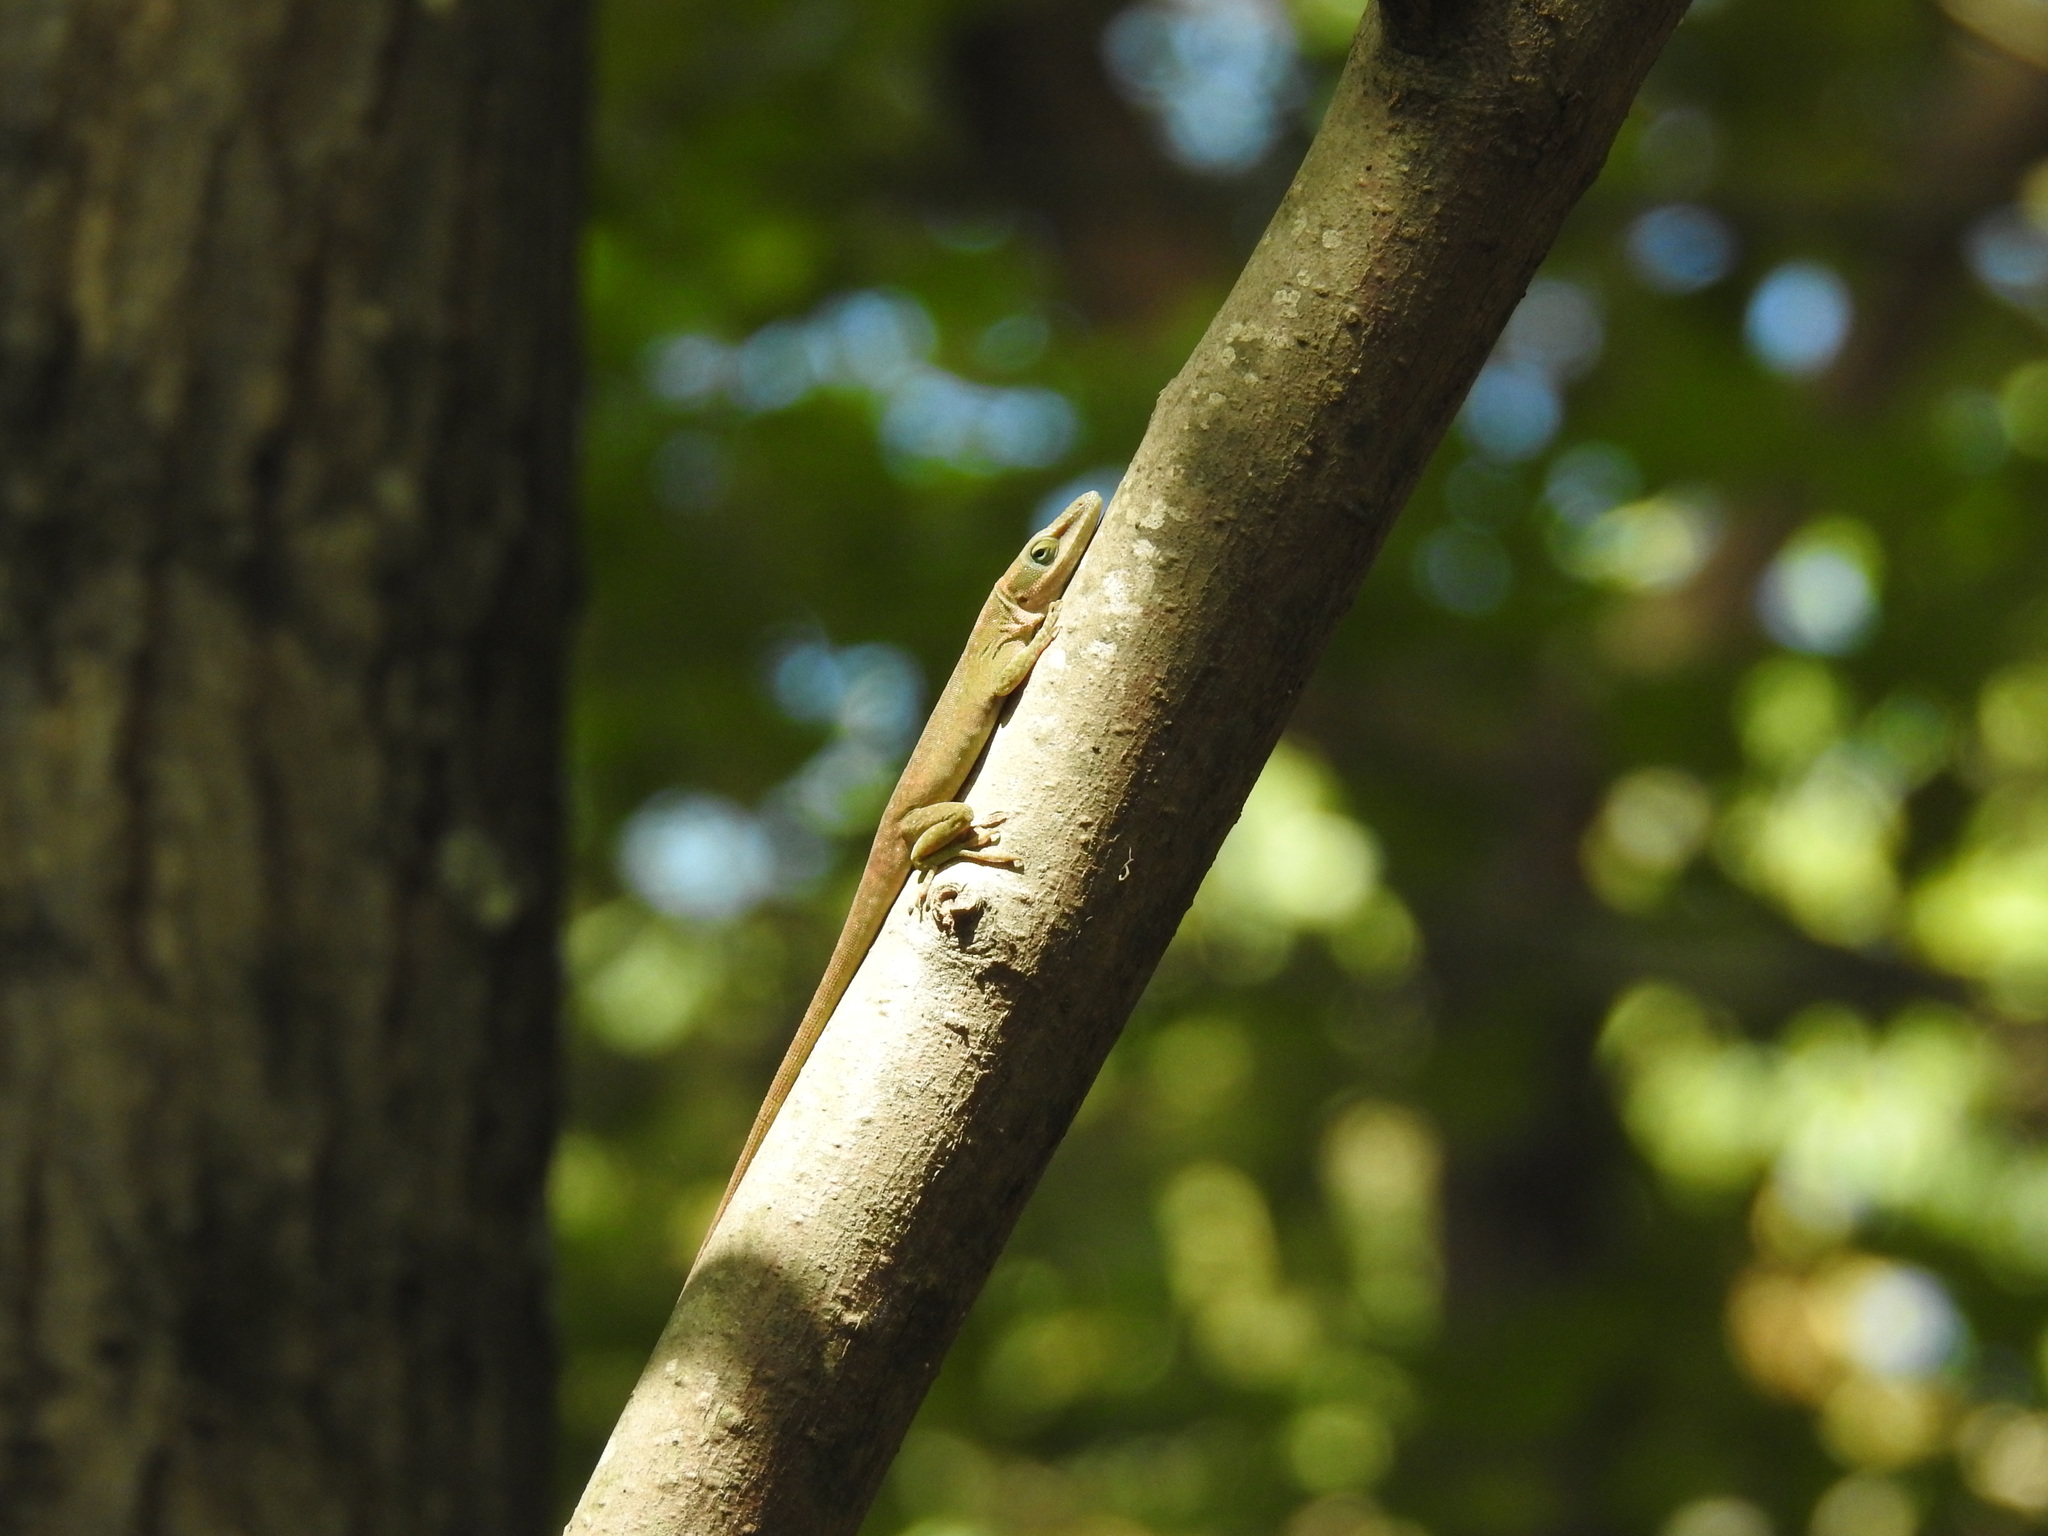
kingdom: Animalia
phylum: Chordata
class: Squamata
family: Dactyloidae
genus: Anolis
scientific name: Anolis carolinensis
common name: Green anole
